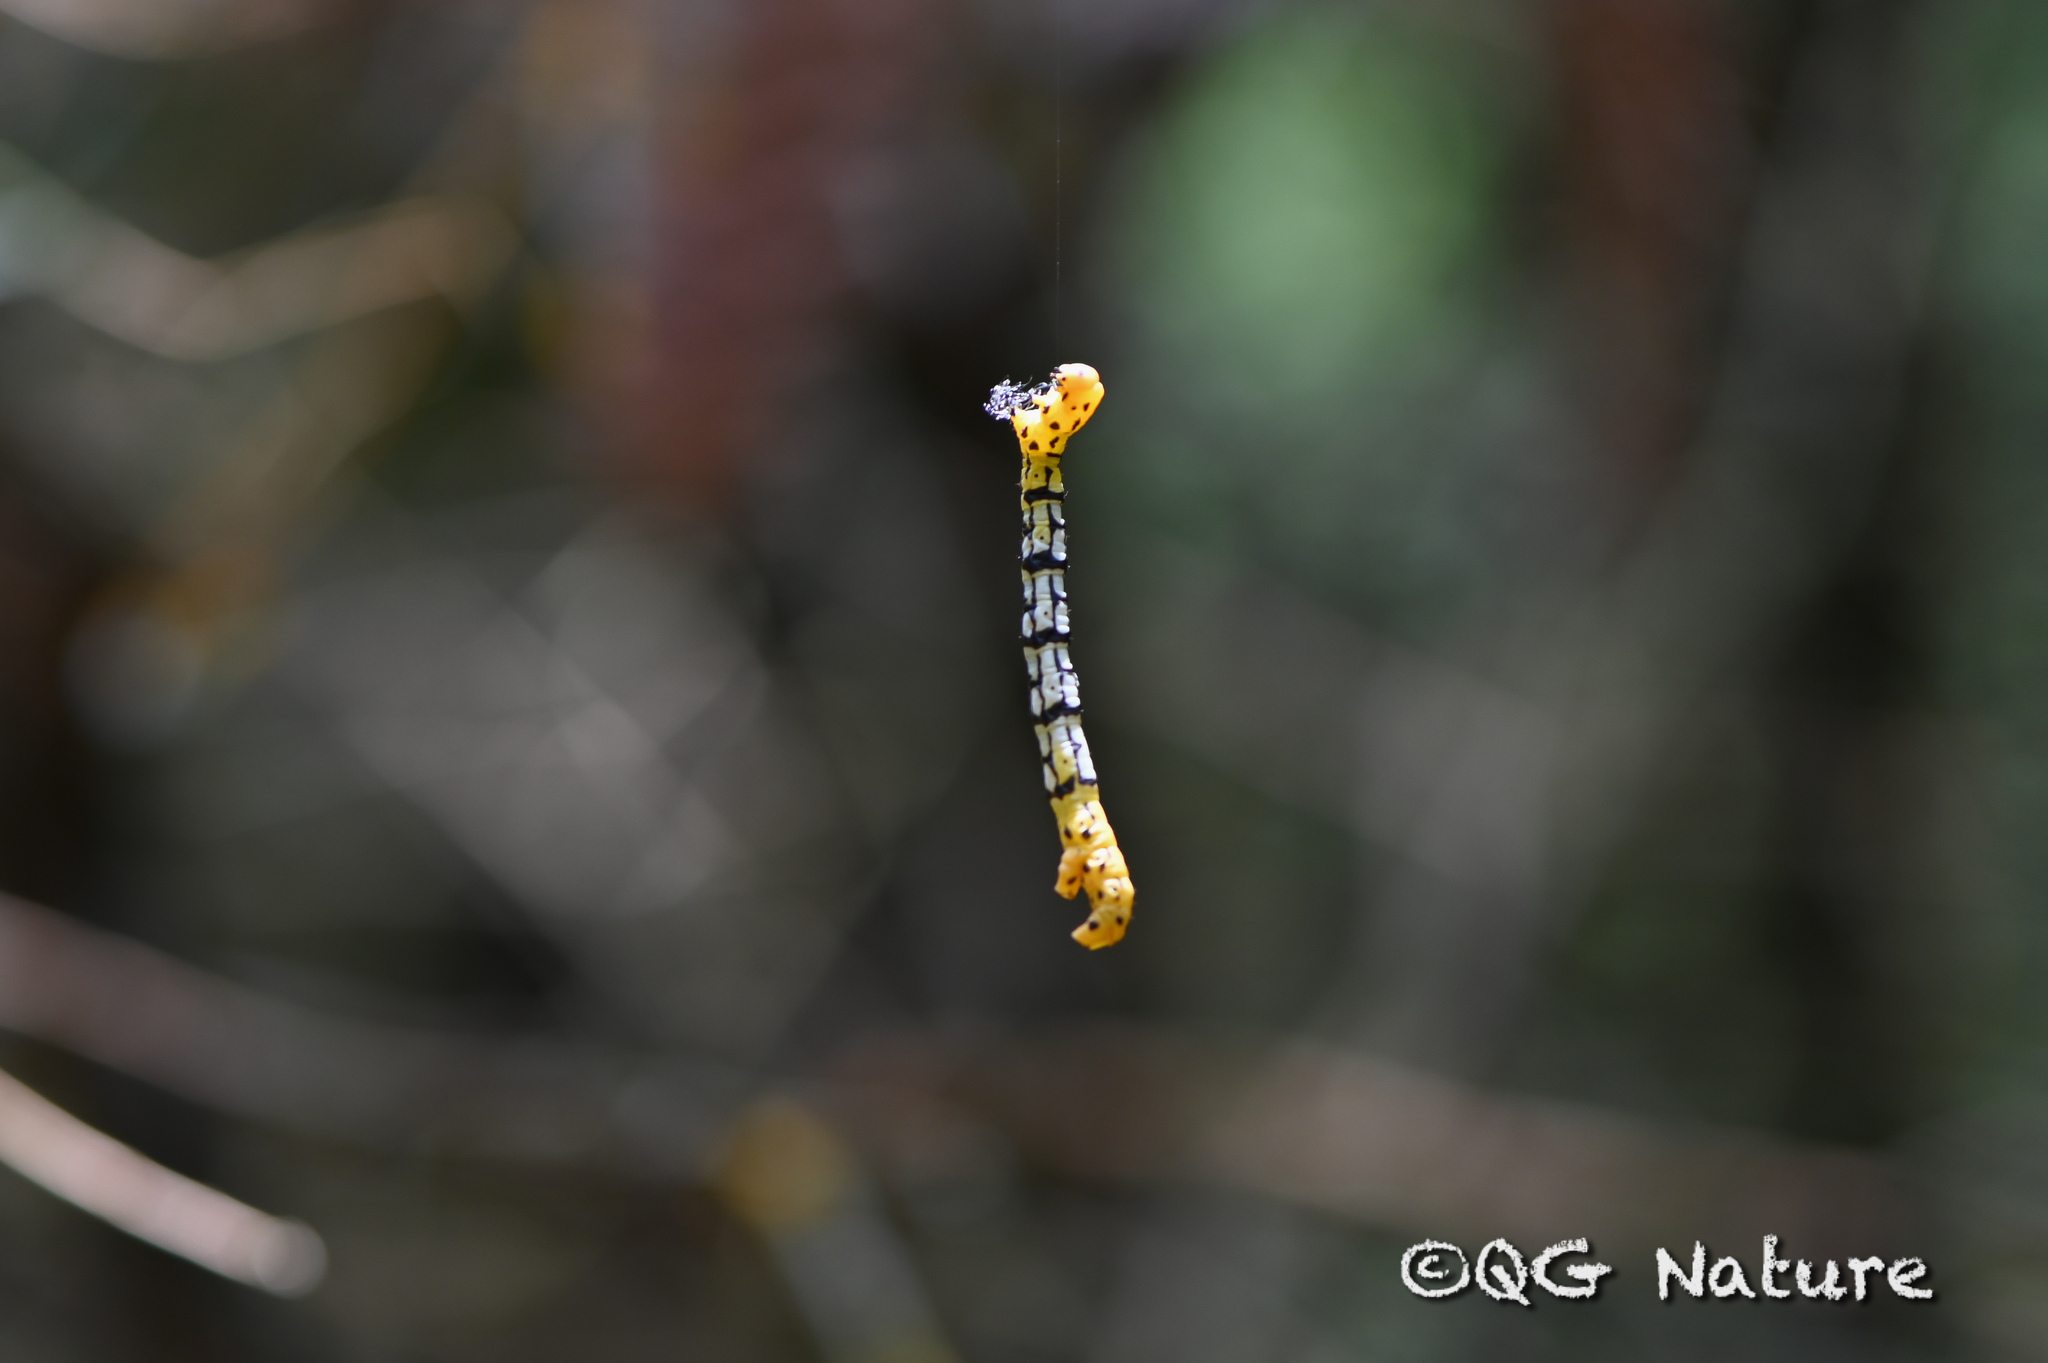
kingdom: Animalia
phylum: Arthropoda
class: Insecta
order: Lepidoptera
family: Geometridae
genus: Ourapteryx
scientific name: Ourapteryx nigrociliaris
